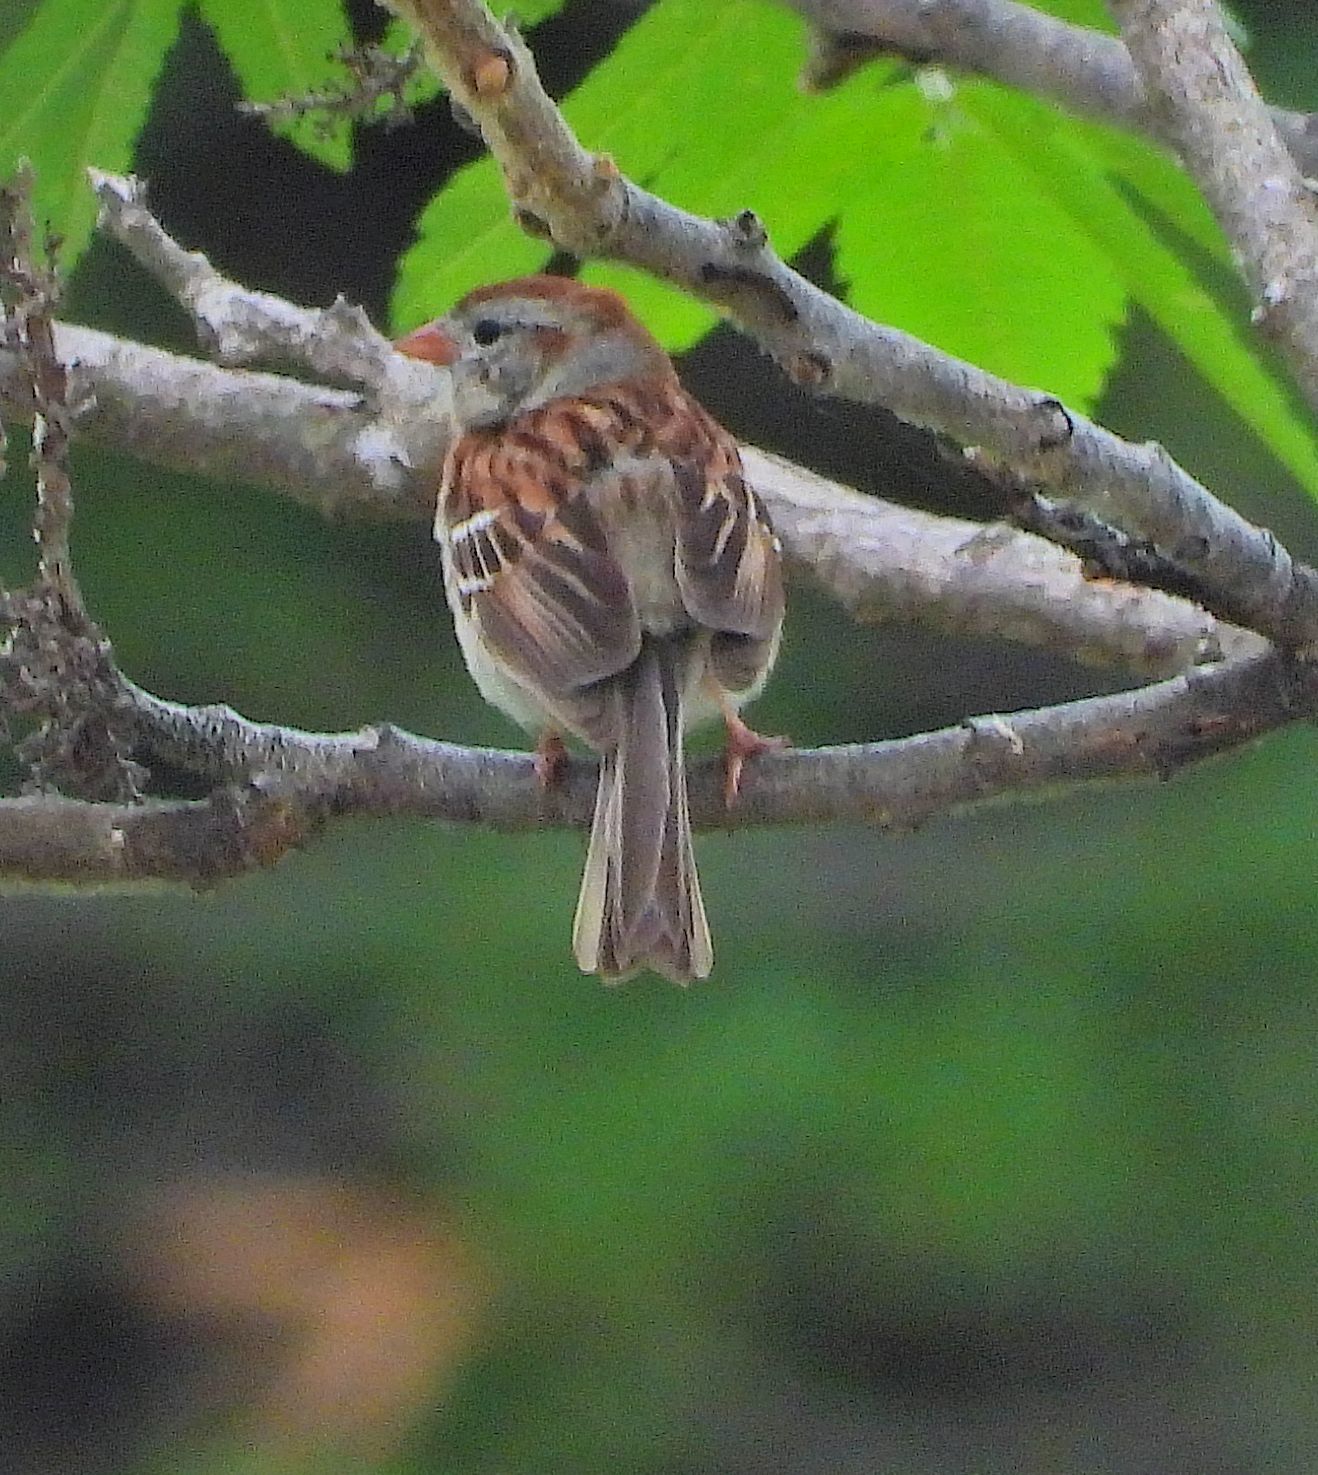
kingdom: Animalia
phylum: Chordata
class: Aves
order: Passeriformes
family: Passerellidae
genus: Spizella
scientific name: Spizella pusilla
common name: Field sparrow
